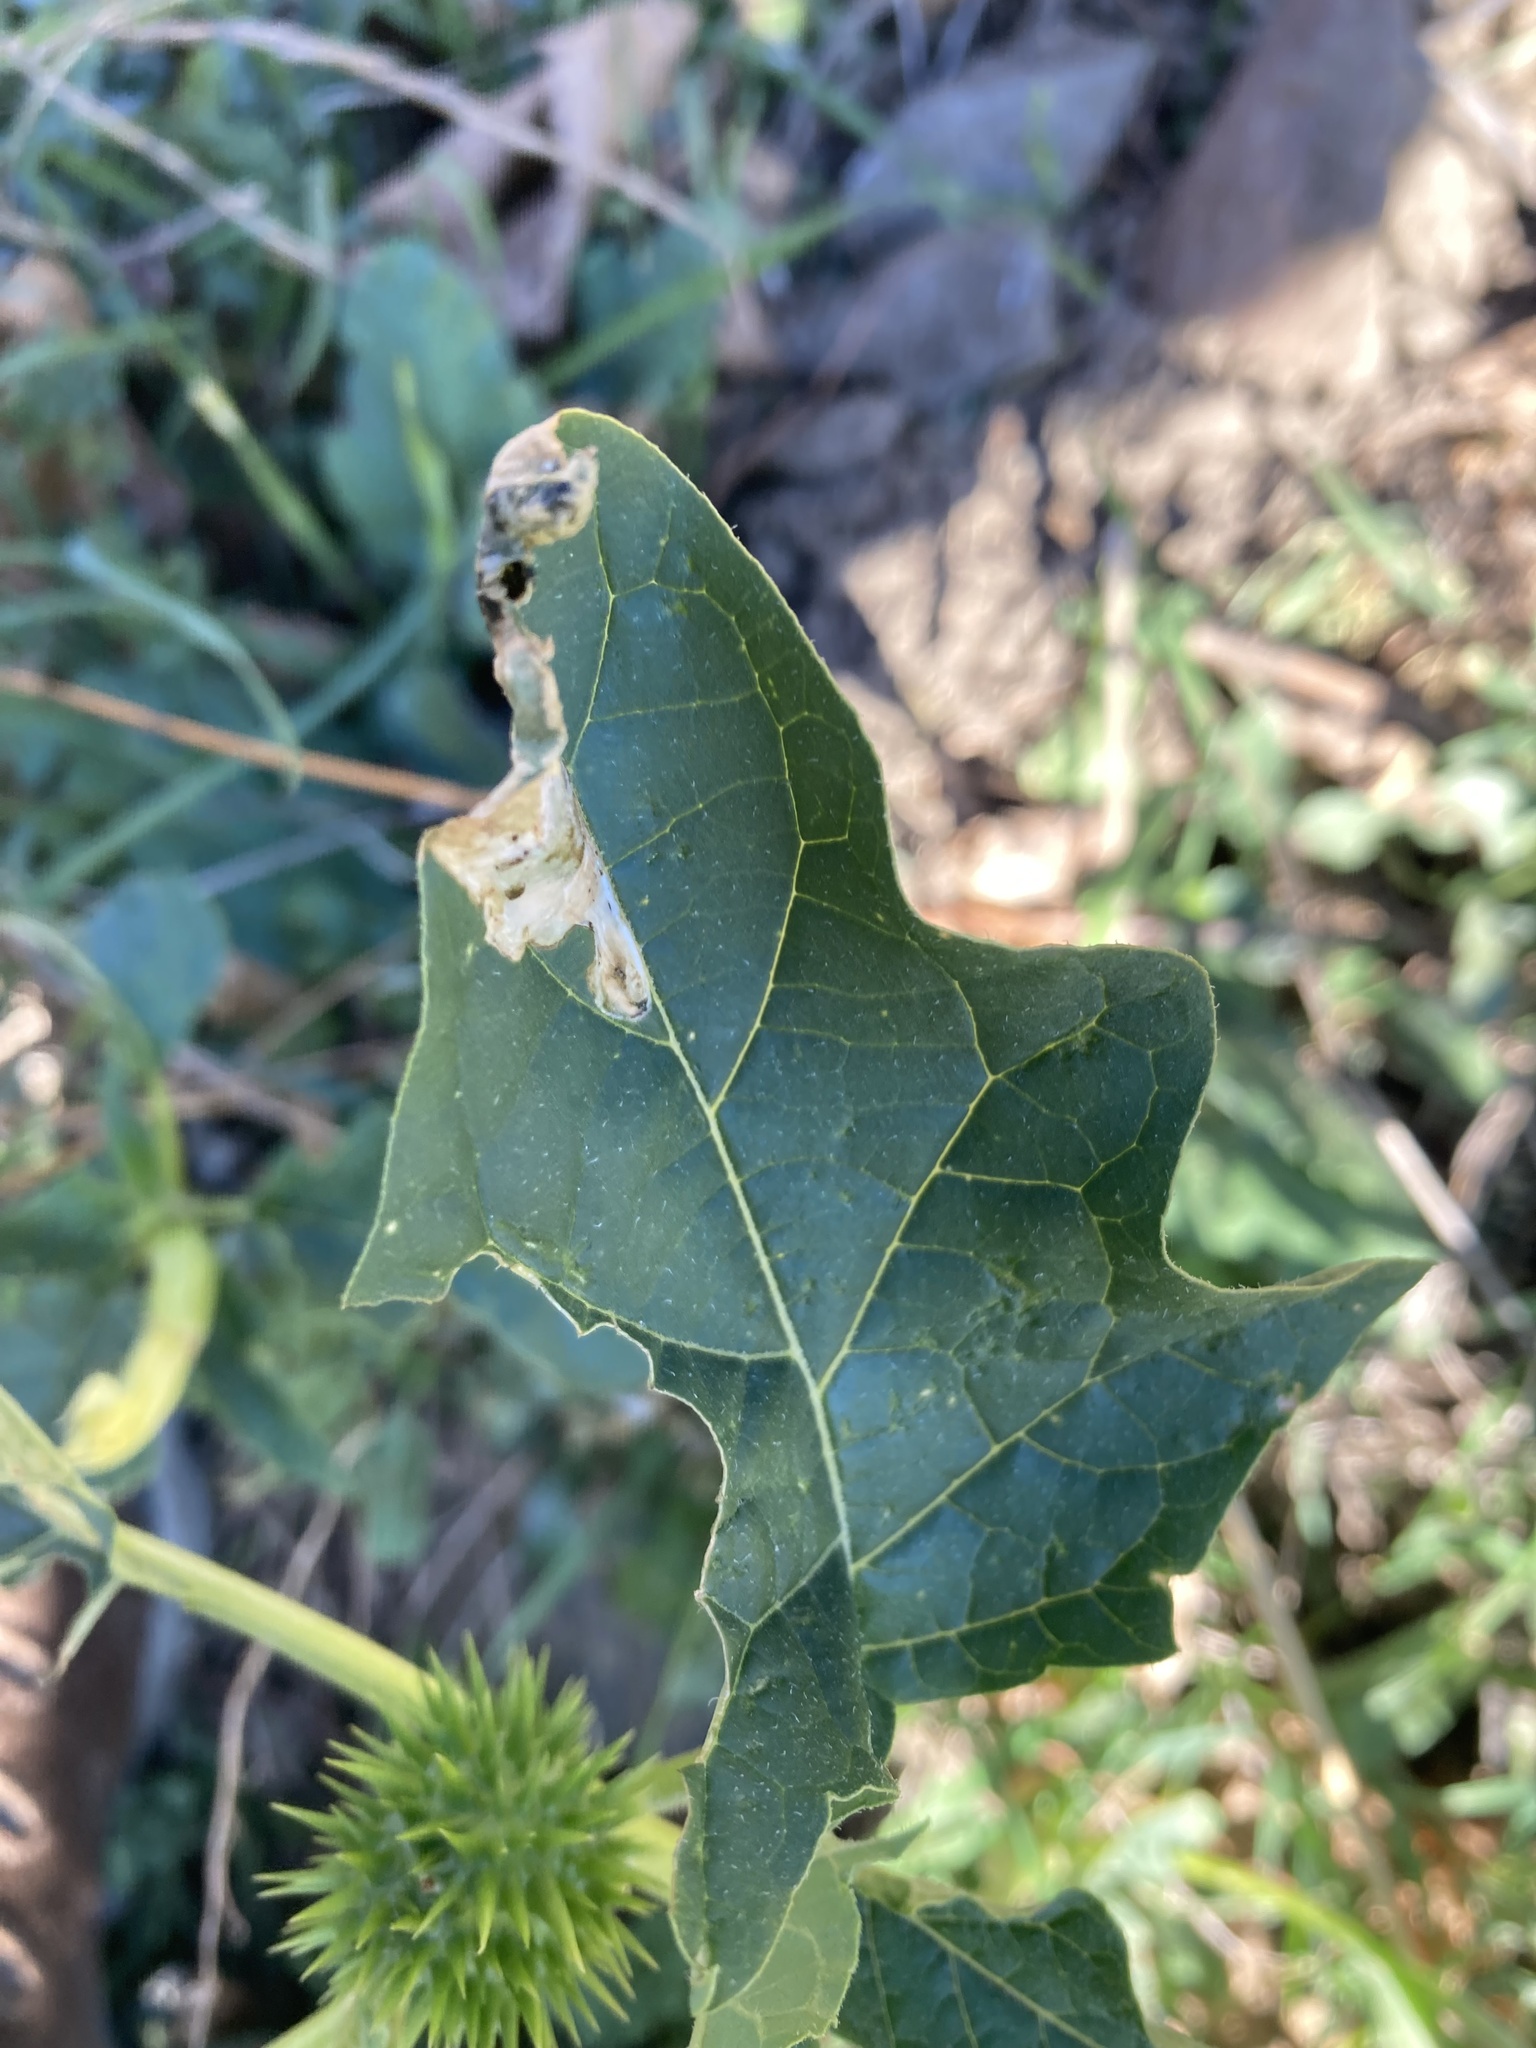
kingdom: Plantae
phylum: Tracheophyta
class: Magnoliopsida
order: Solanales
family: Solanaceae
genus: Datura
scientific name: Datura stramonium
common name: Thorn-apple
